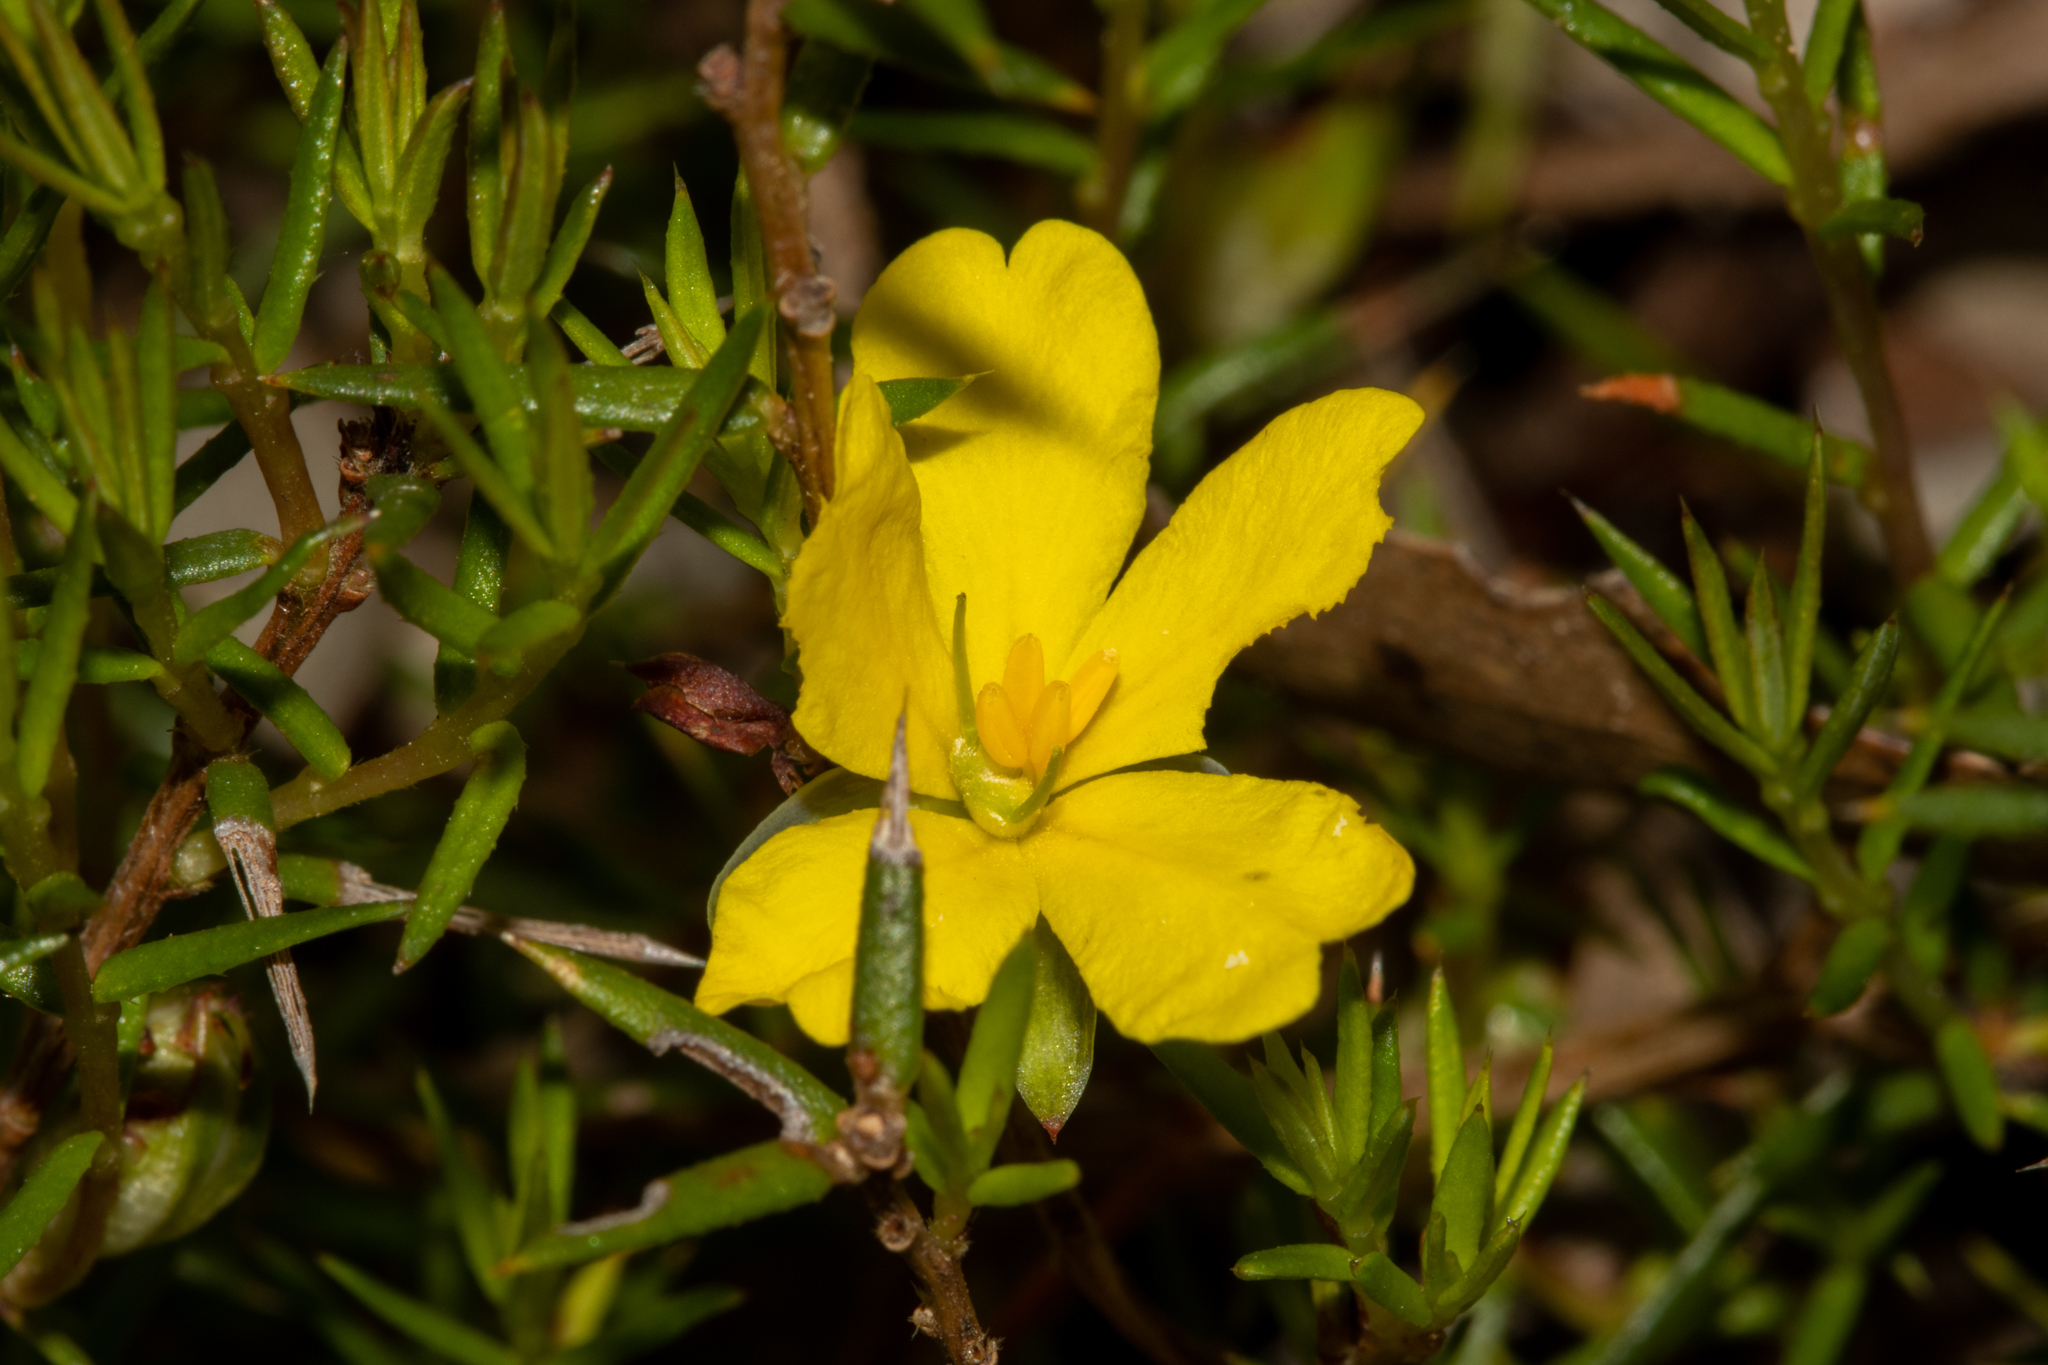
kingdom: Plantae
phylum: Tracheophyta
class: Magnoliopsida
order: Dilleniales
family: Dilleniaceae
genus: Hibbertia
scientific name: Hibbertia exutiacies
